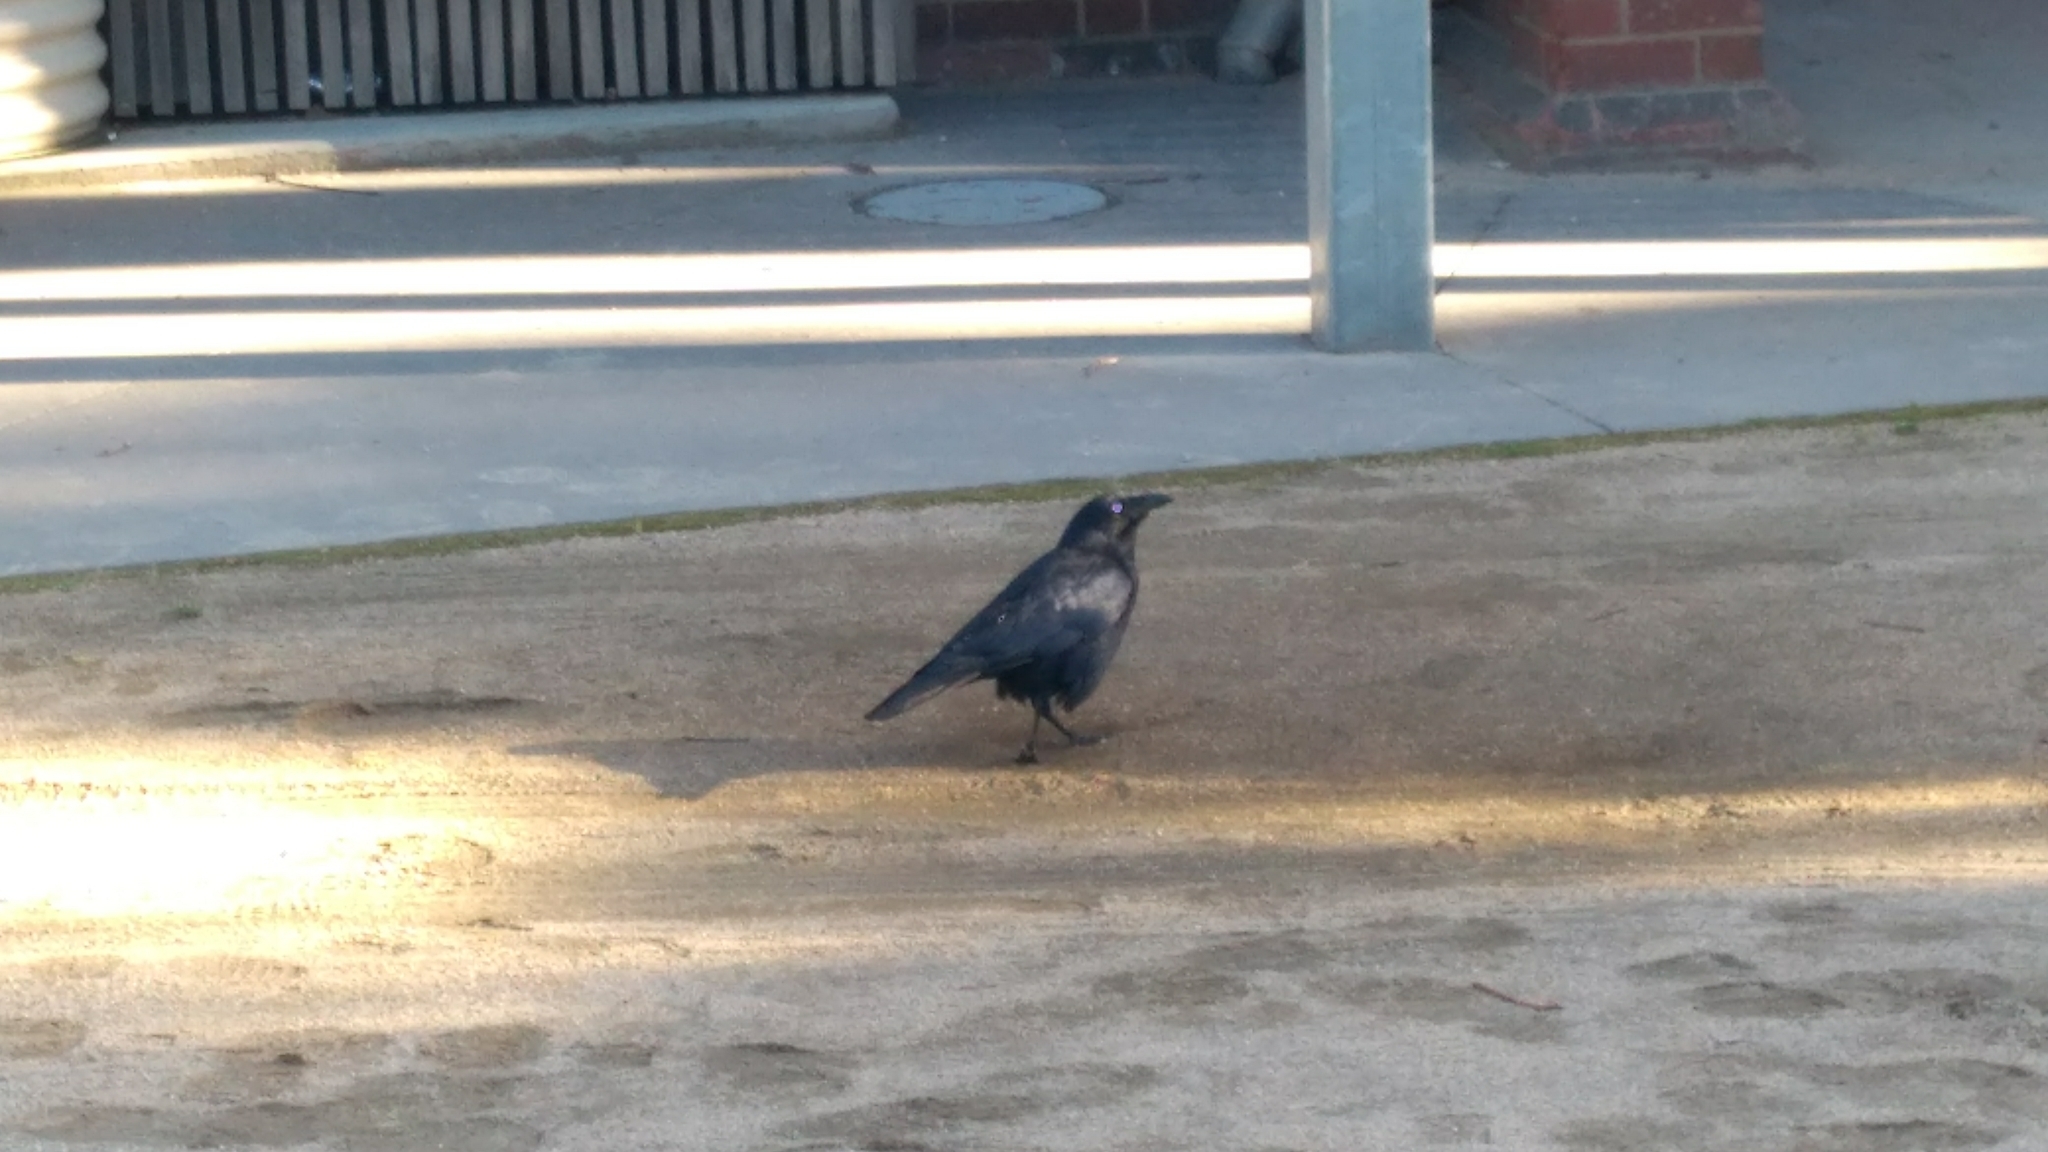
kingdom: Animalia
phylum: Chordata
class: Aves
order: Passeriformes
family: Corvidae
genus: Corvus
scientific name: Corvus mellori
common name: Little raven
